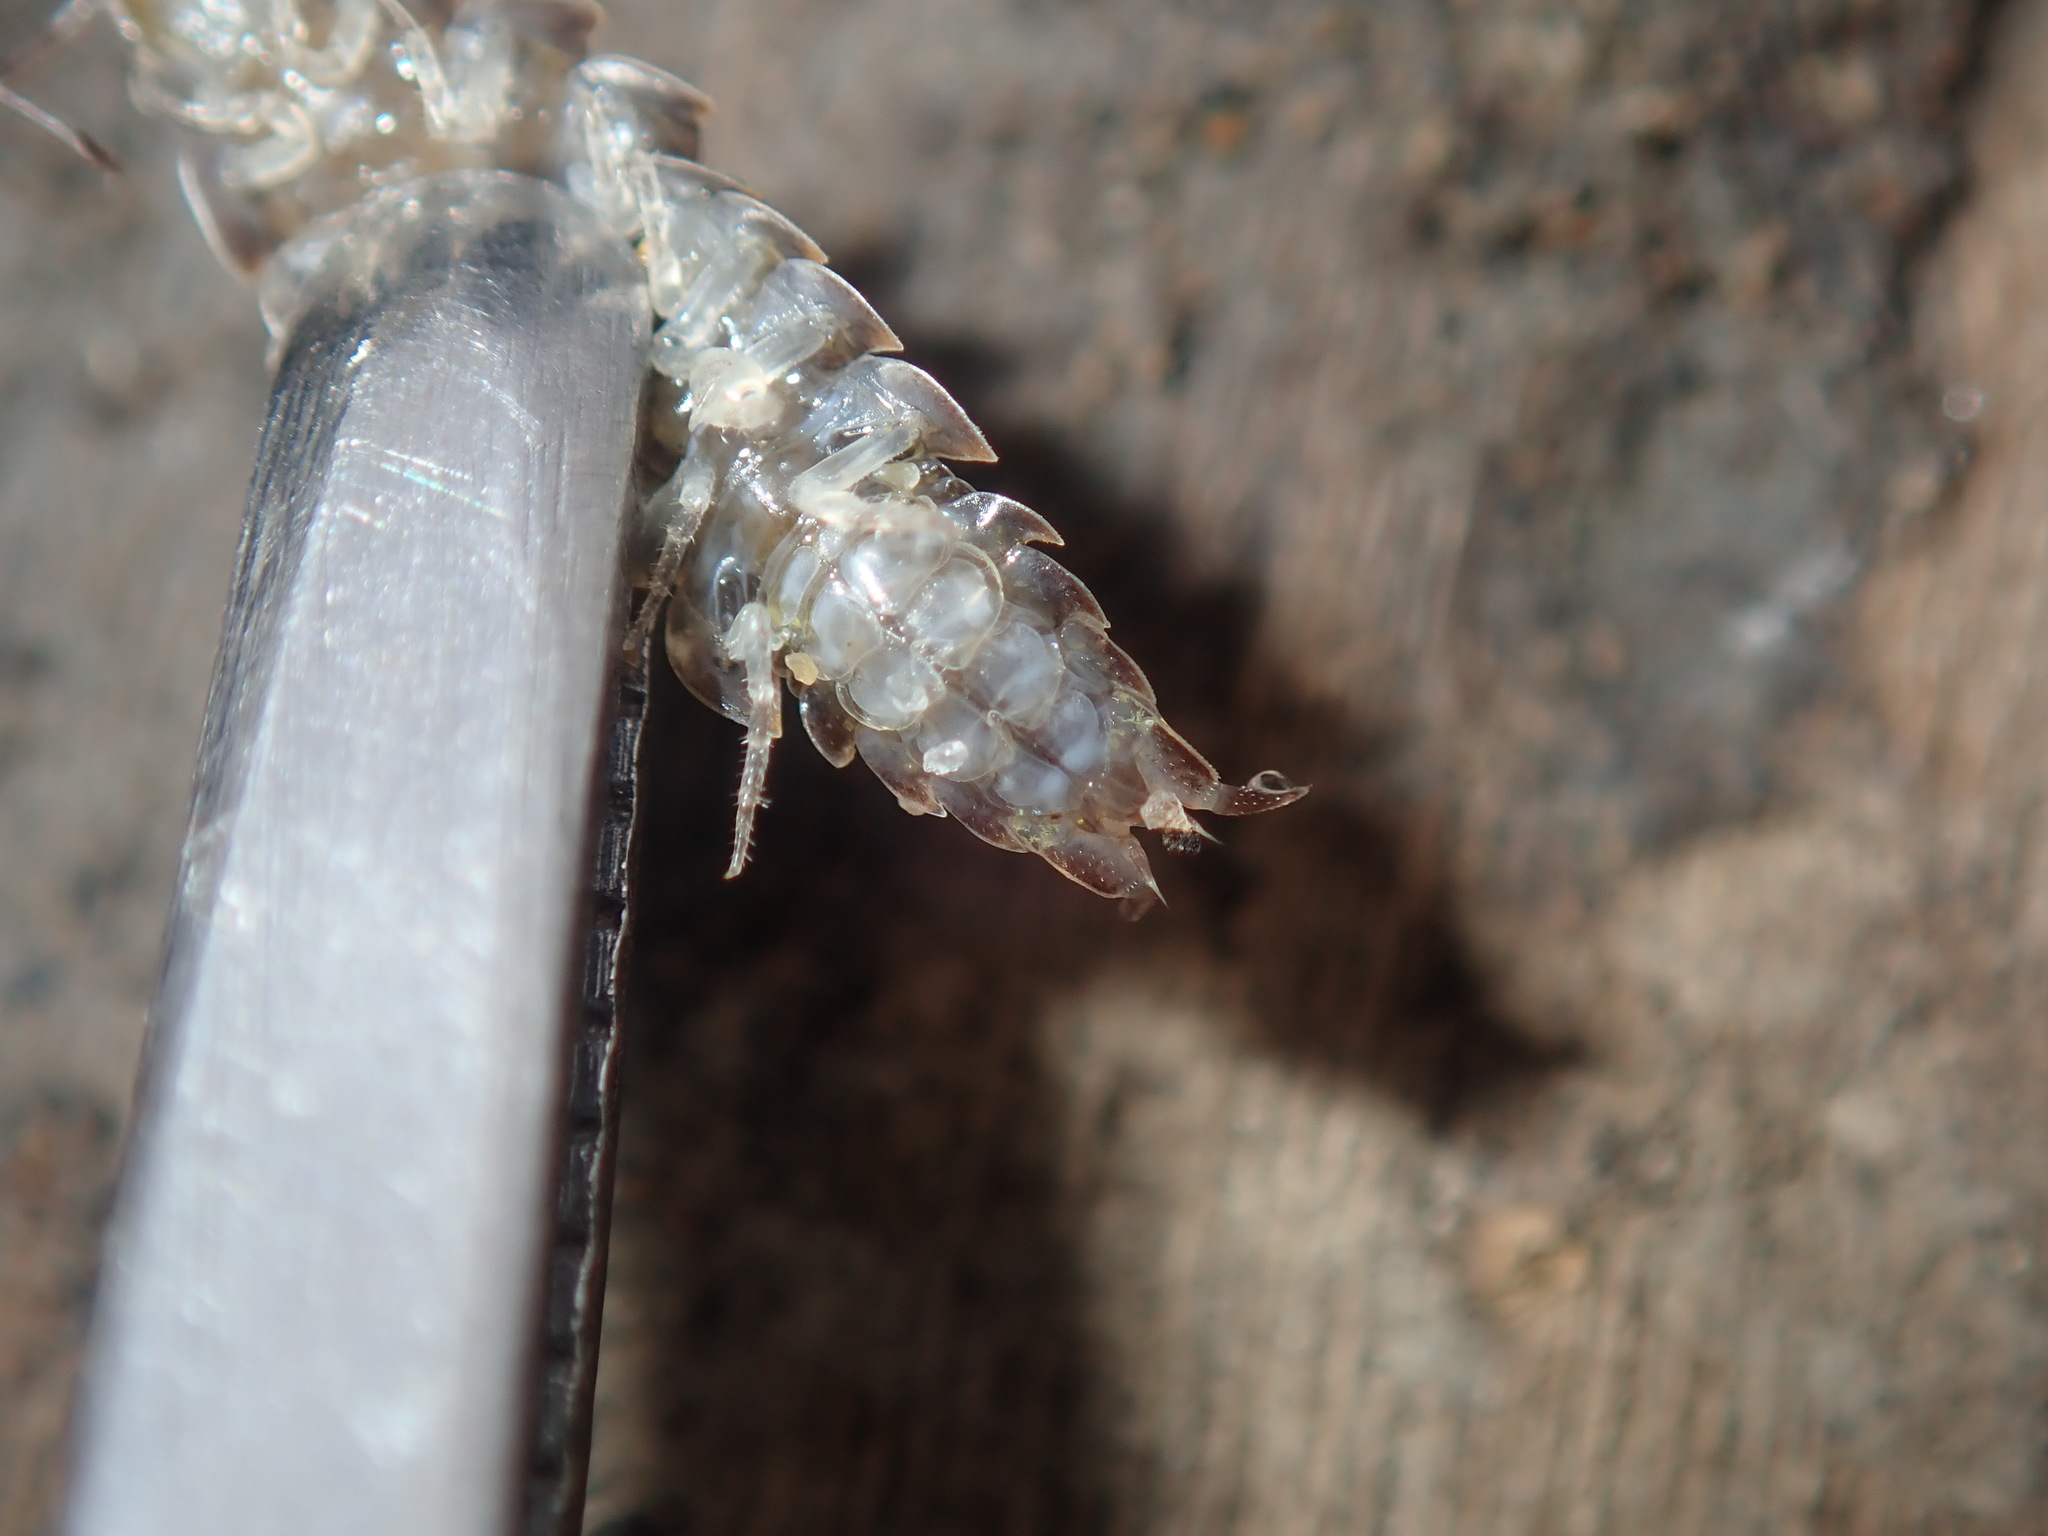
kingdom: Animalia
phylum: Arthropoda
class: Malacostraca
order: Isopoda
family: Detonidae
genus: Deto
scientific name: Deto marina
